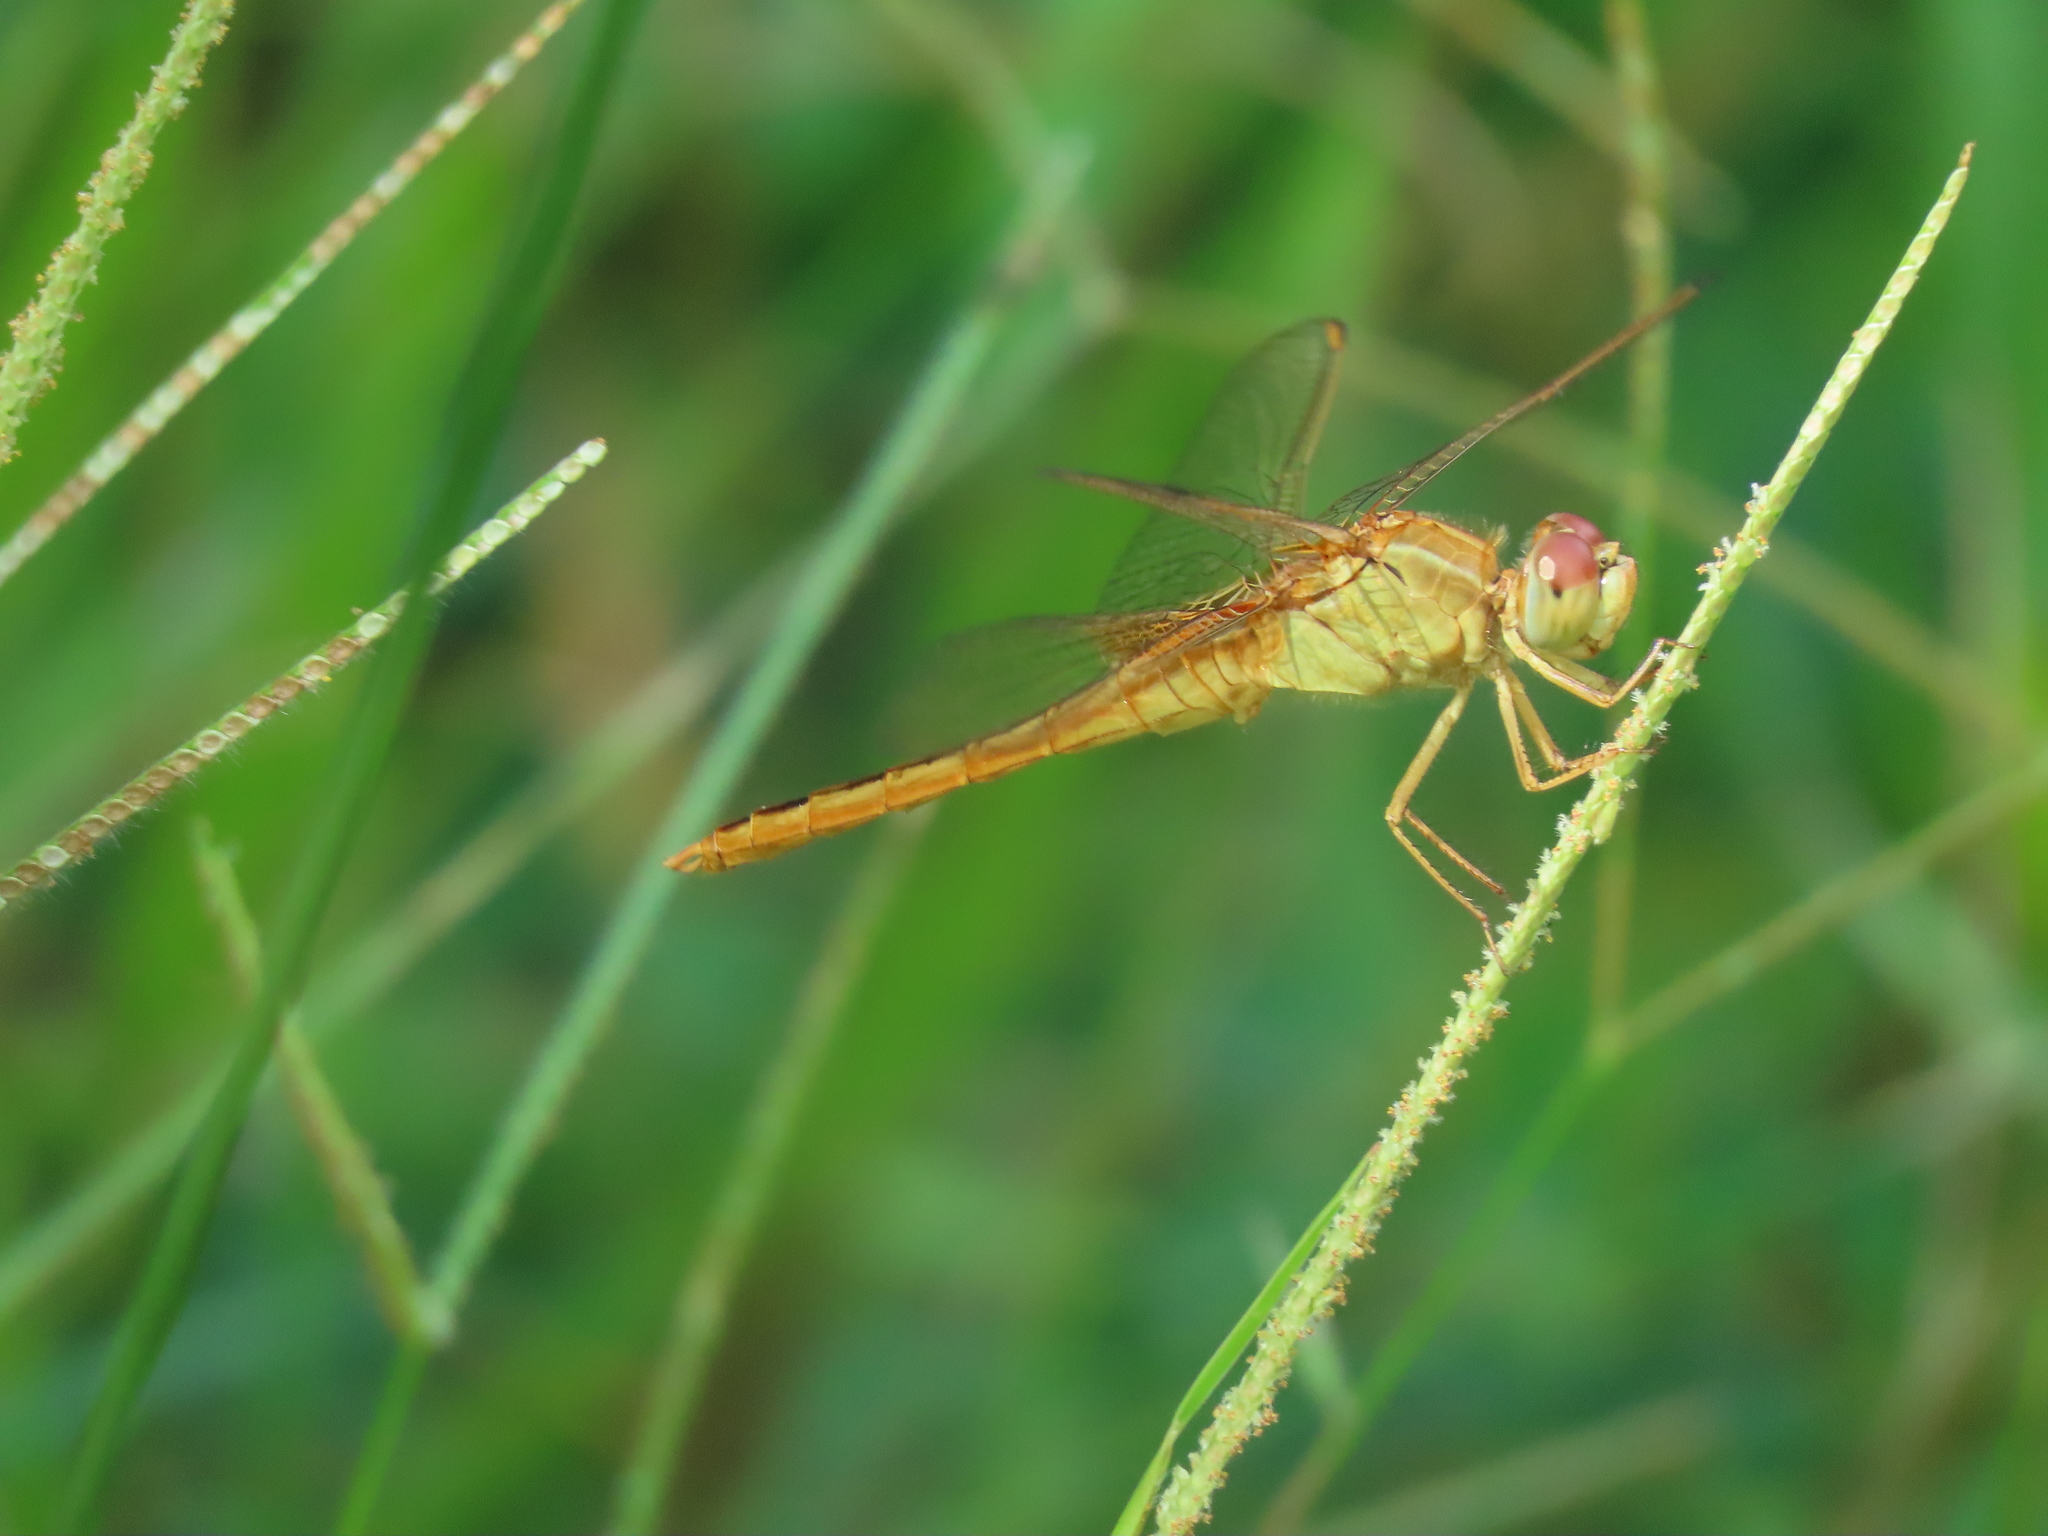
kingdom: Animalia
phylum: Arthropoda
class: Insecta
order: Odonata
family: Libellulidae
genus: Crocothemis
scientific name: Crocothemis servilia
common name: Scarlet skimmer
